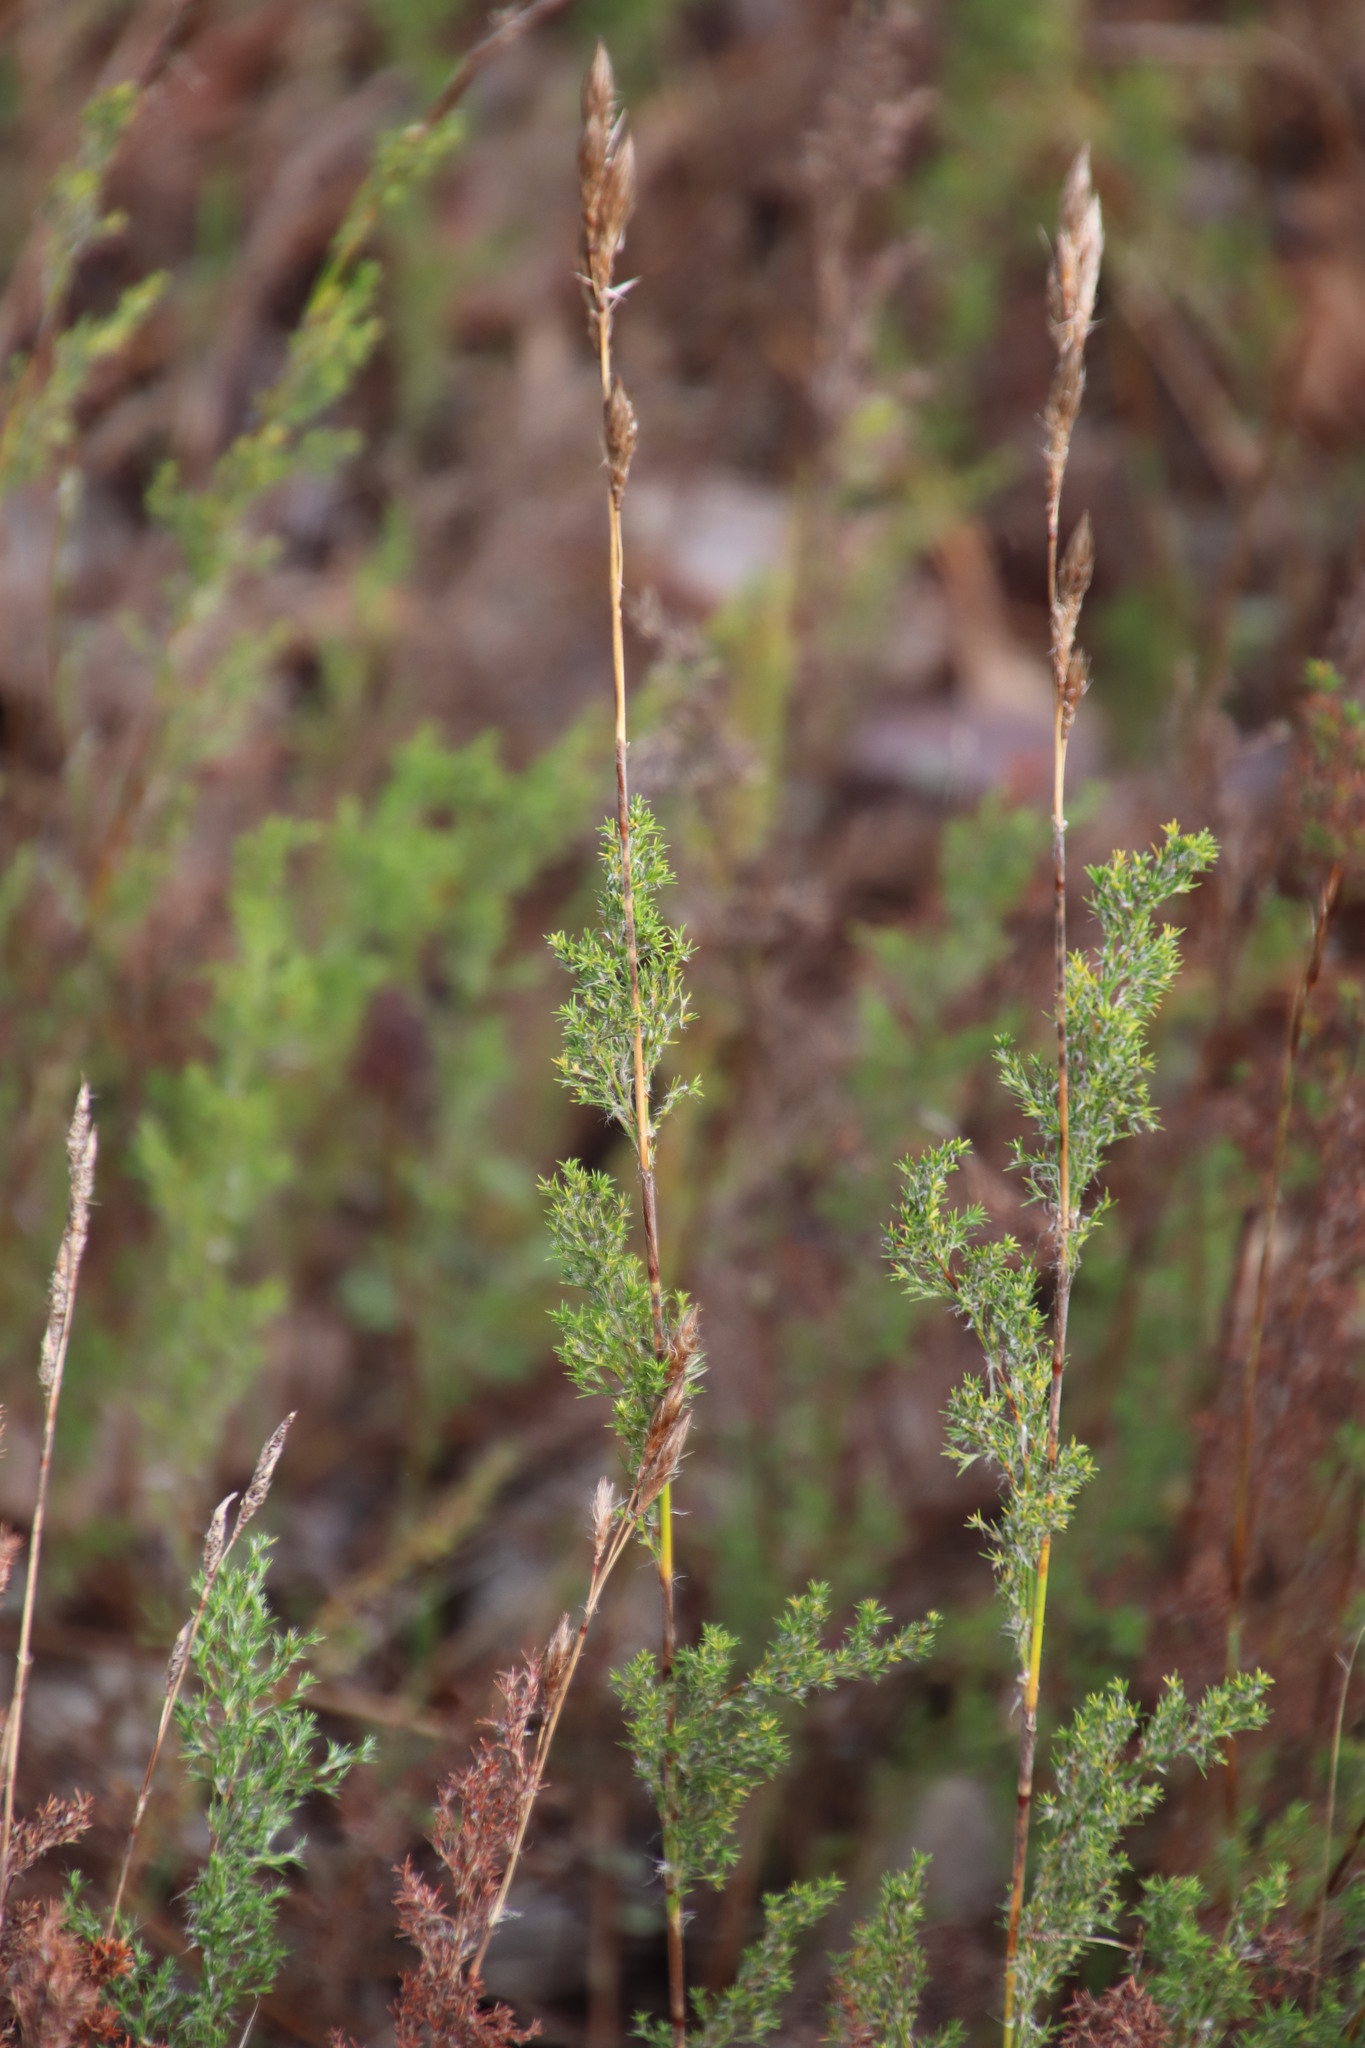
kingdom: Plantae
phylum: Tracheophyta
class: Liliopsida
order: Poales
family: Restionaceae
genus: Thamnochortus
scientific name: Thamnochortus fruticosus
